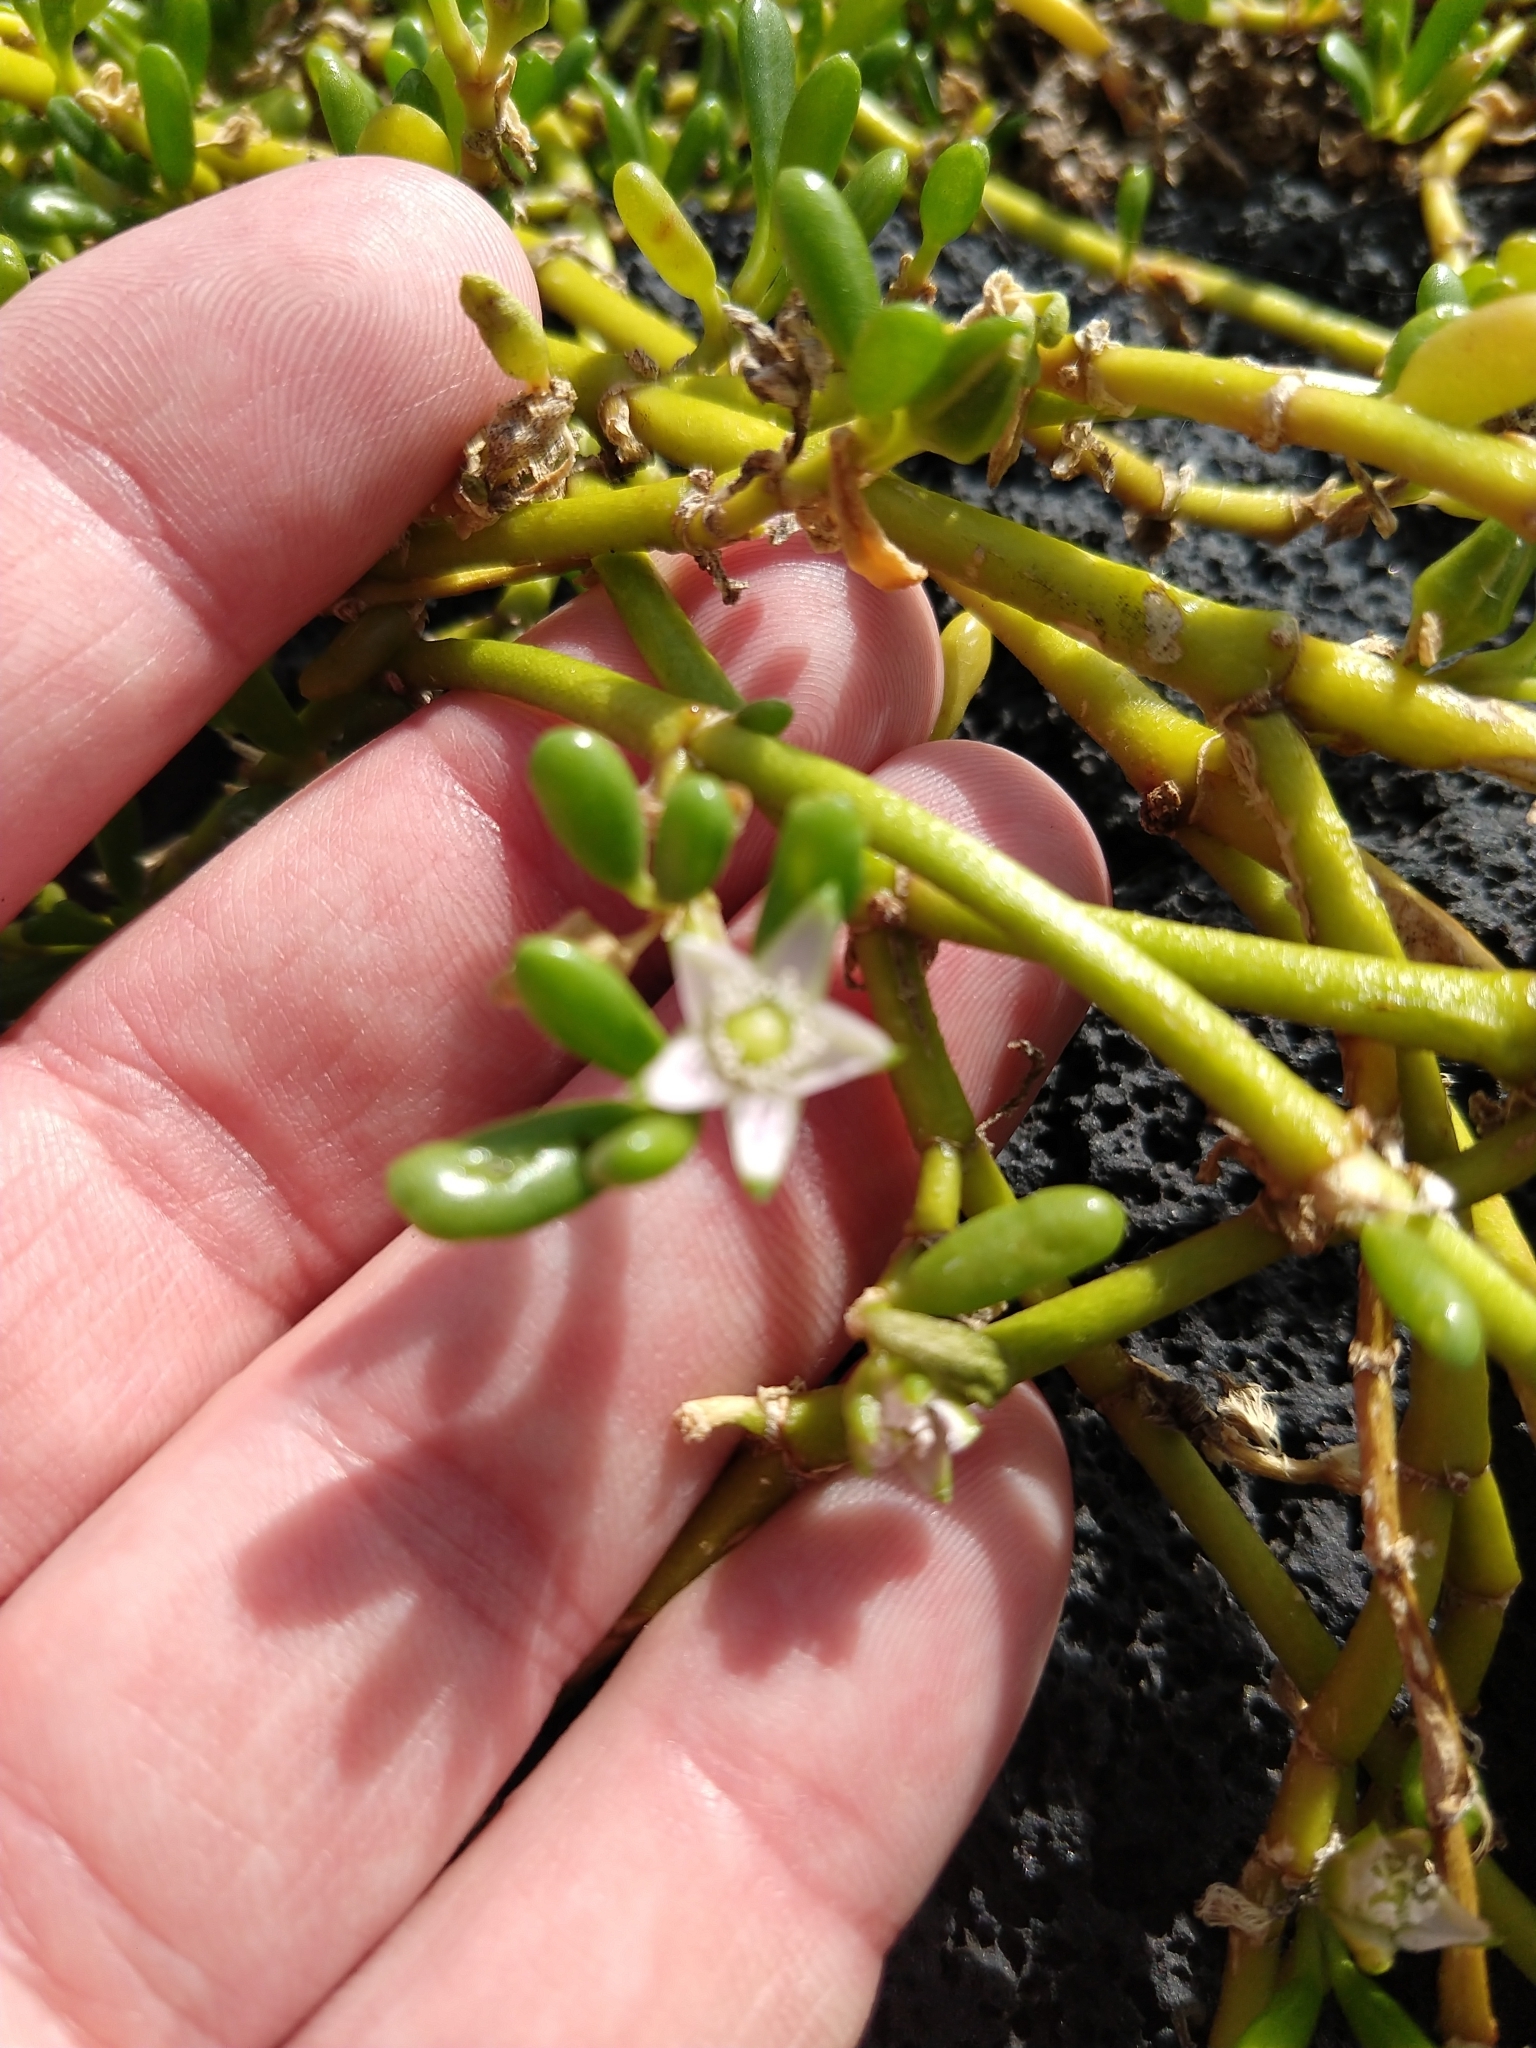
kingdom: Plantae
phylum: Tracheophyta
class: Magnoliopsida
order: Caryophyllales
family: Aizoaceae
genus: Sesuvium
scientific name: Sesuvium portulacastrum
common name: Sea-purslane
